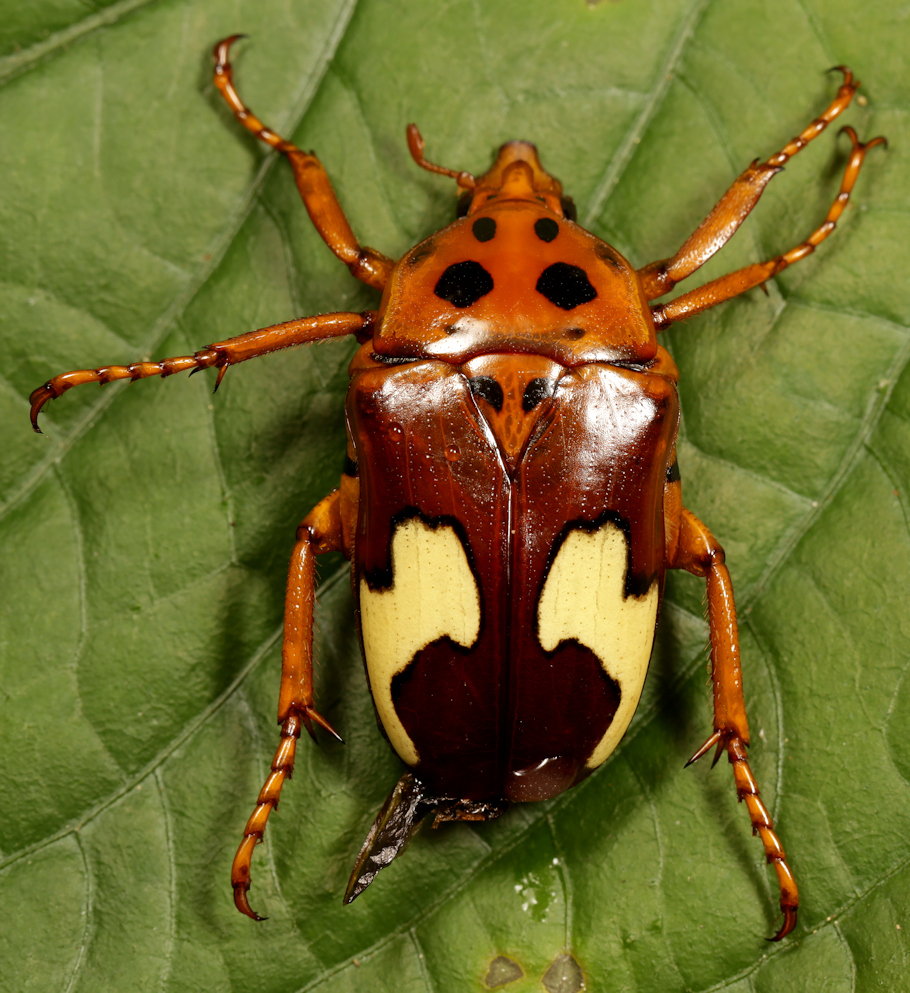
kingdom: Animalia
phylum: Arthropoda
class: Insecta
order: Coleoptera
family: Scarabaeidae
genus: Anisorrhina
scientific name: Anisorrhina flavomaculata
